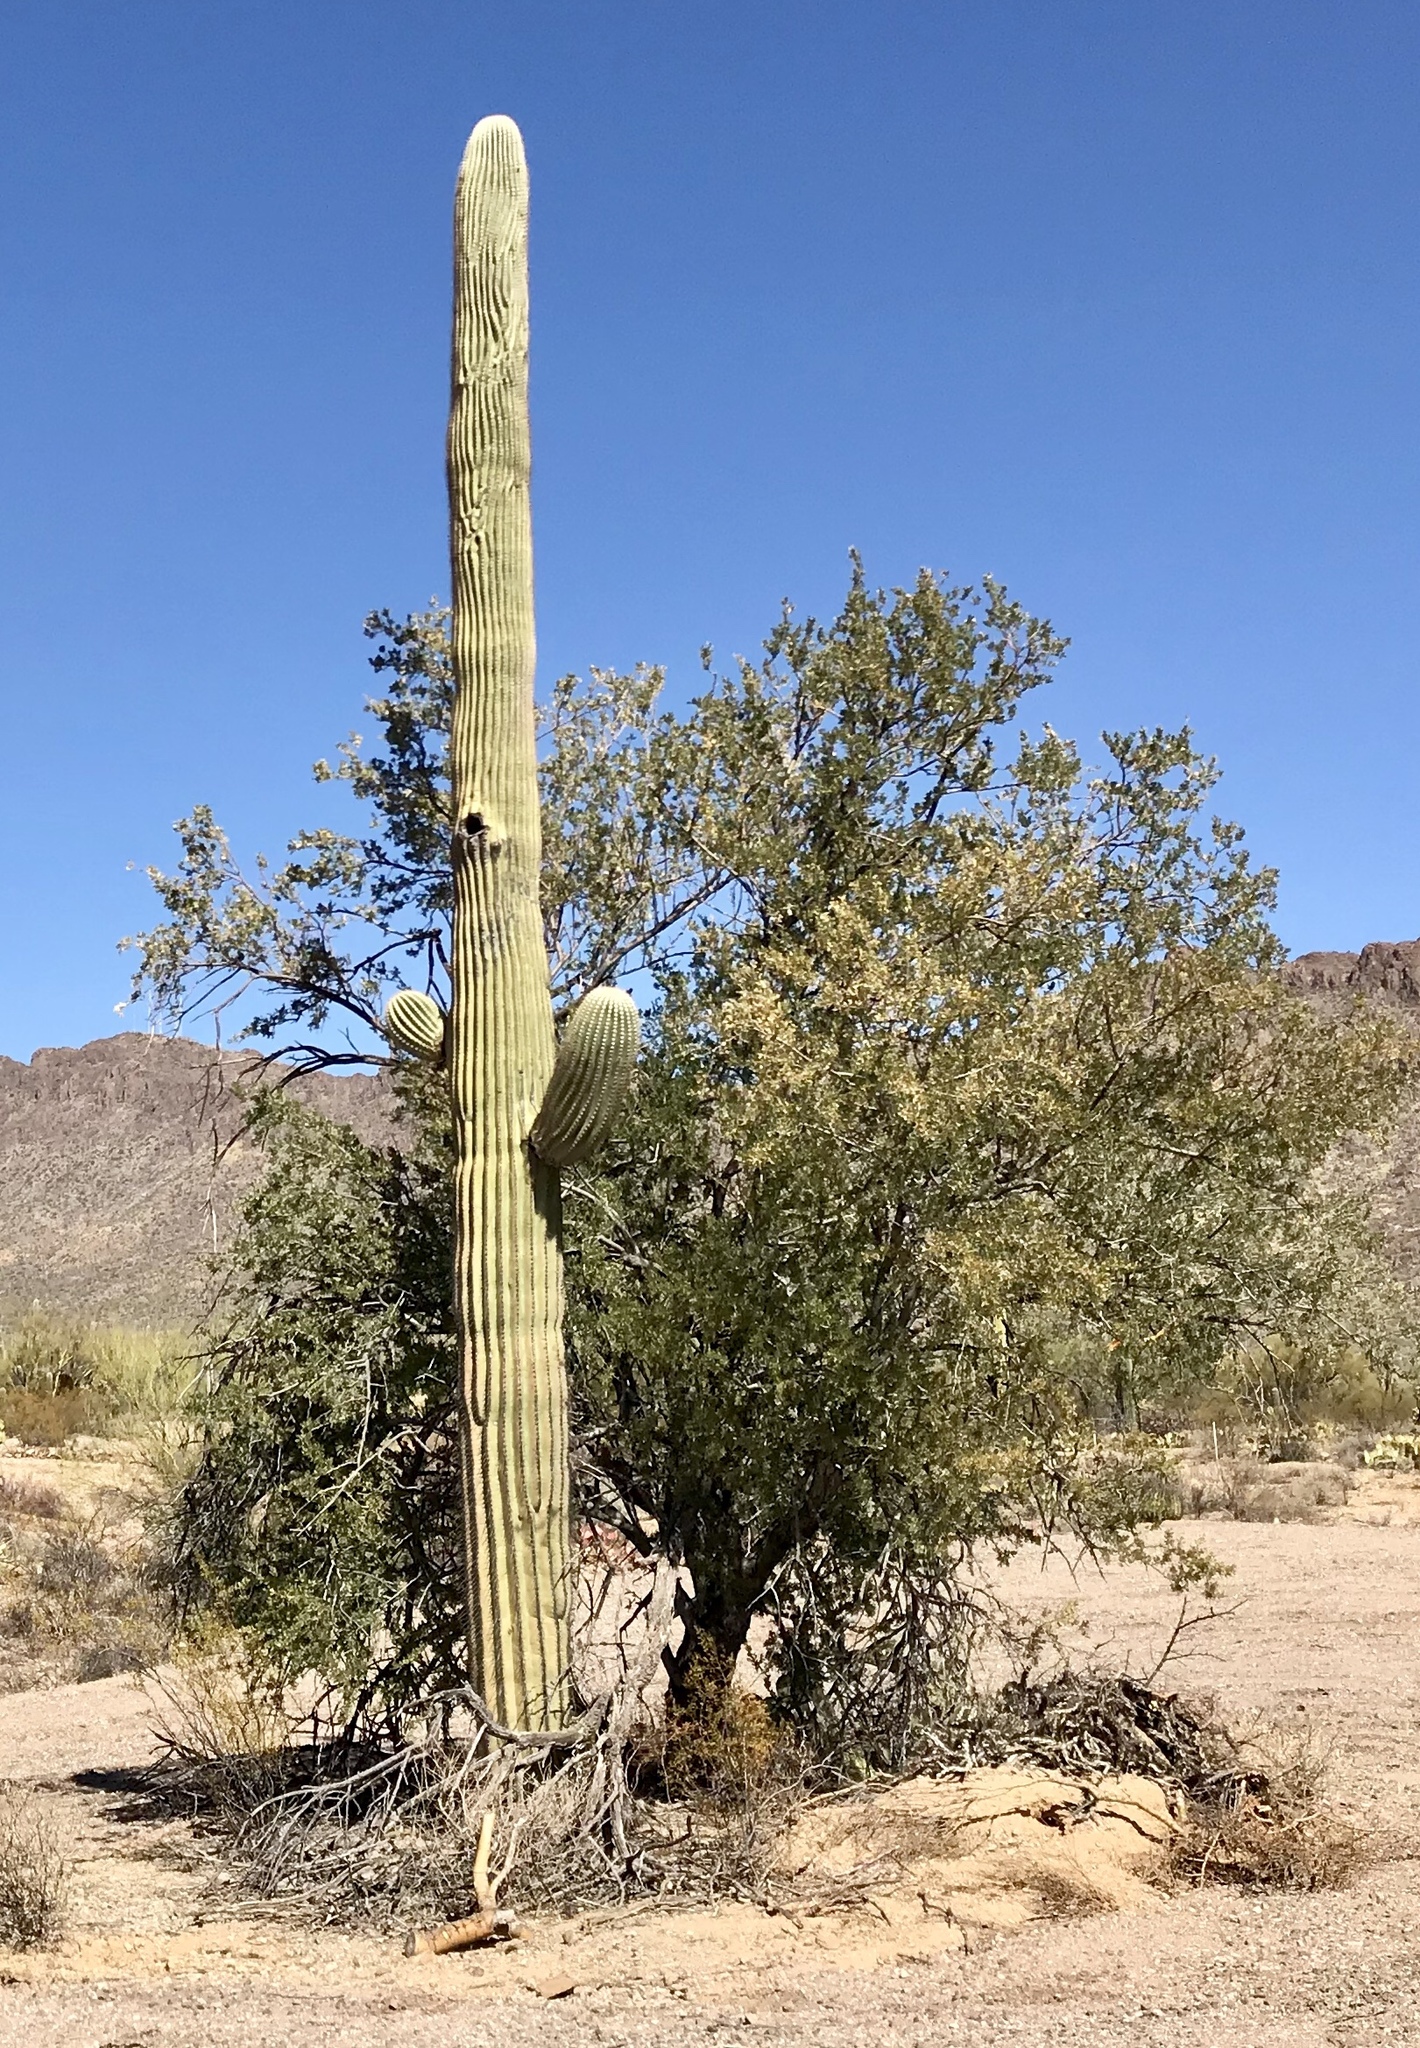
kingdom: Plantae
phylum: Tracheophyta
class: Magnoliopsida
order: Caryophyllales
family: Cactaceae
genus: Carnegiea
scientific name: Carnegiea gigantea
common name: Saguaro
